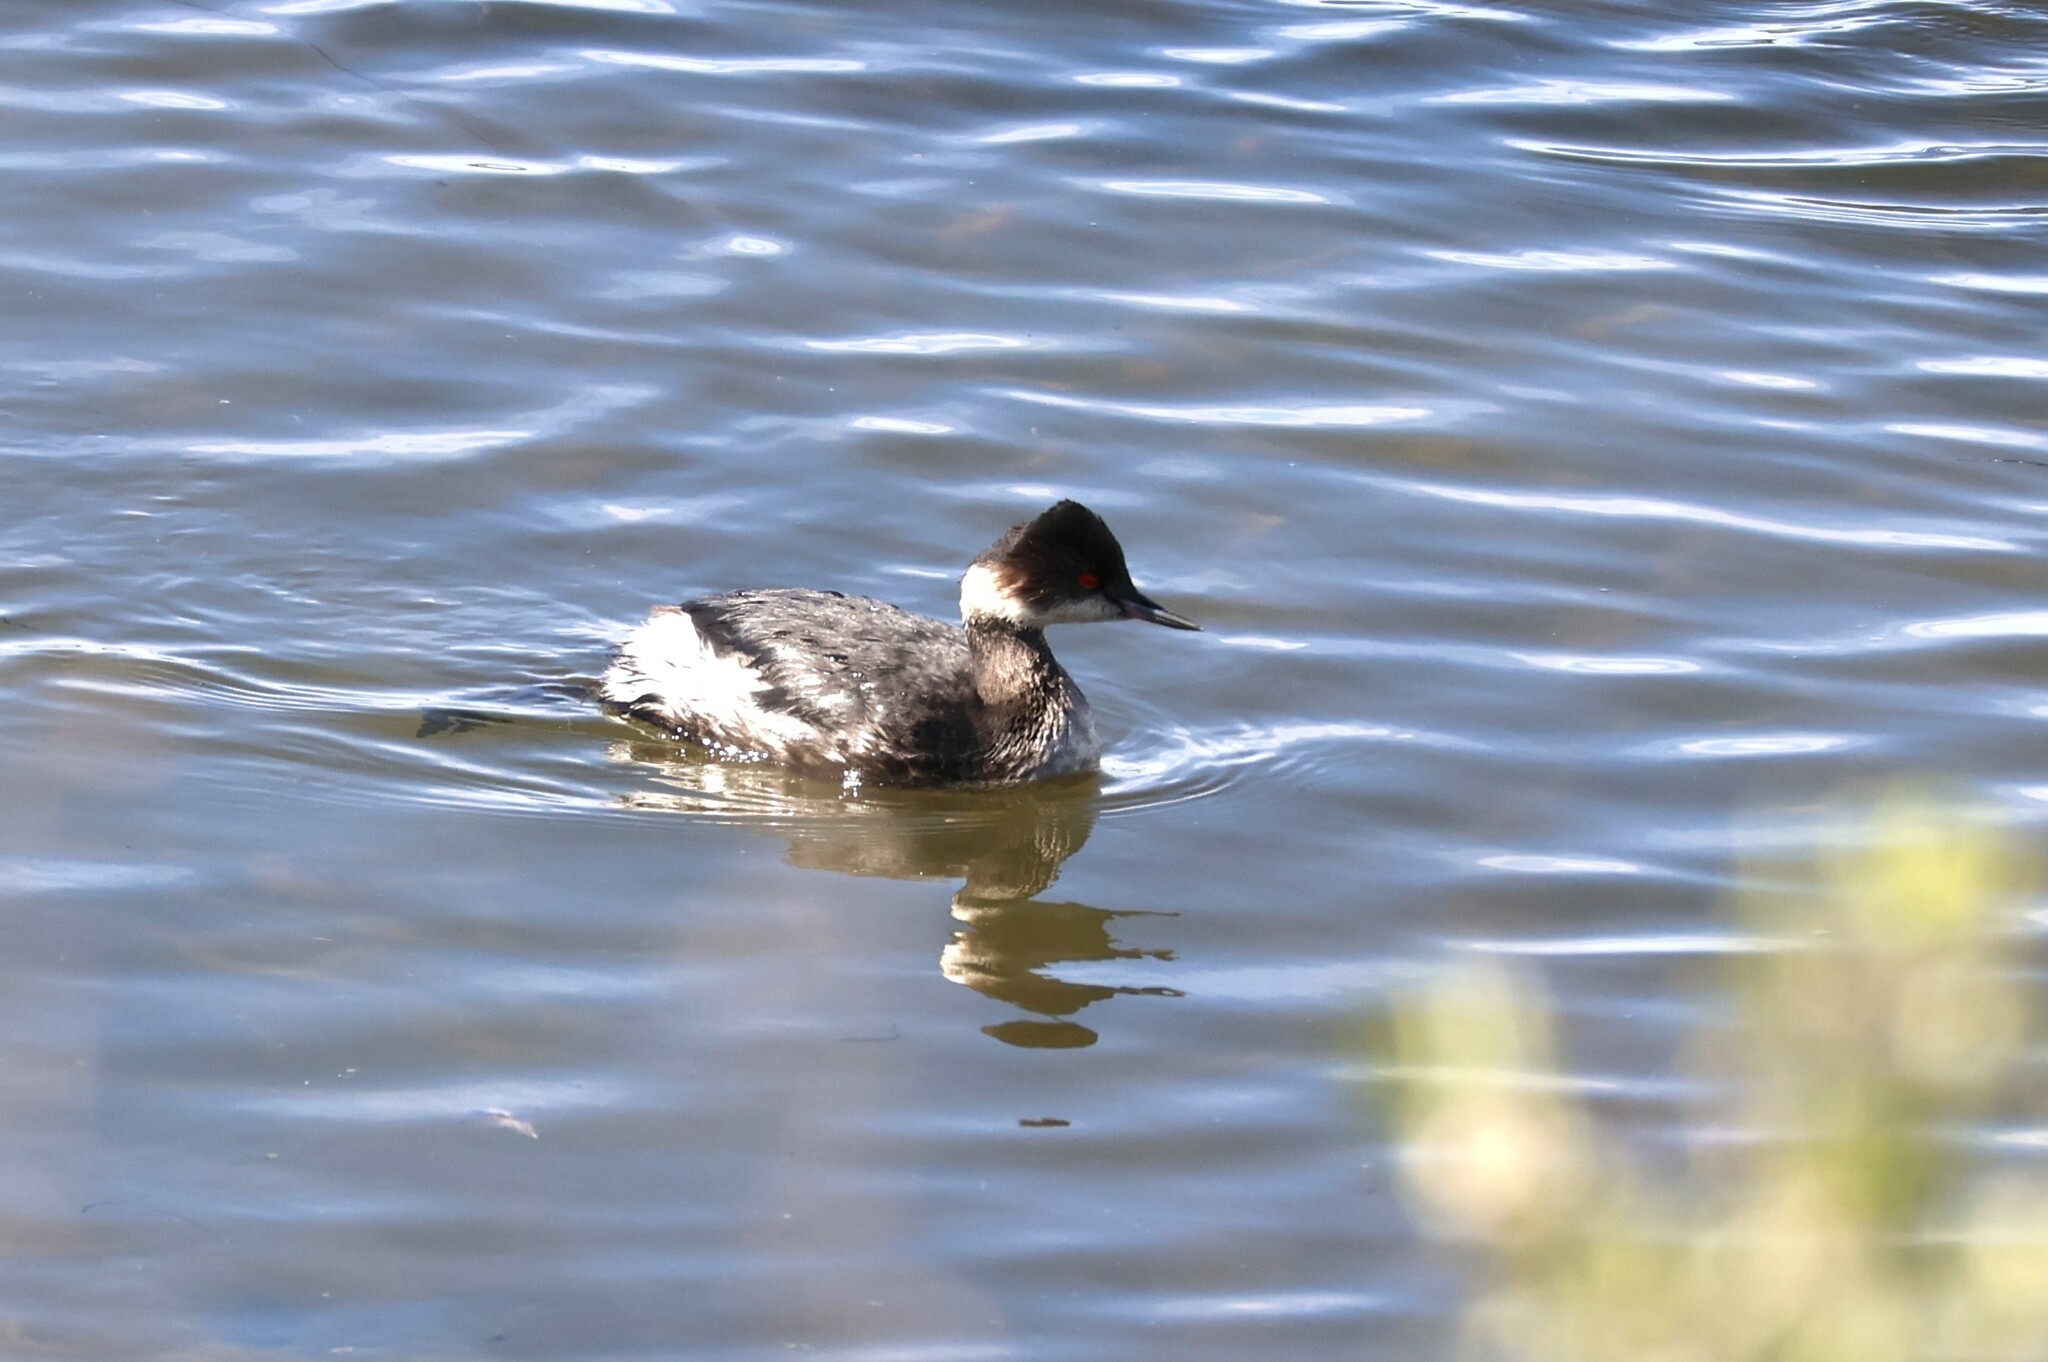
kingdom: Animalia
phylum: Chordata
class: Aves
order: Podicipediformes
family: Podicipedidae
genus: Podiceps
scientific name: Podiceps nigricollis
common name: Black-necked grebe
